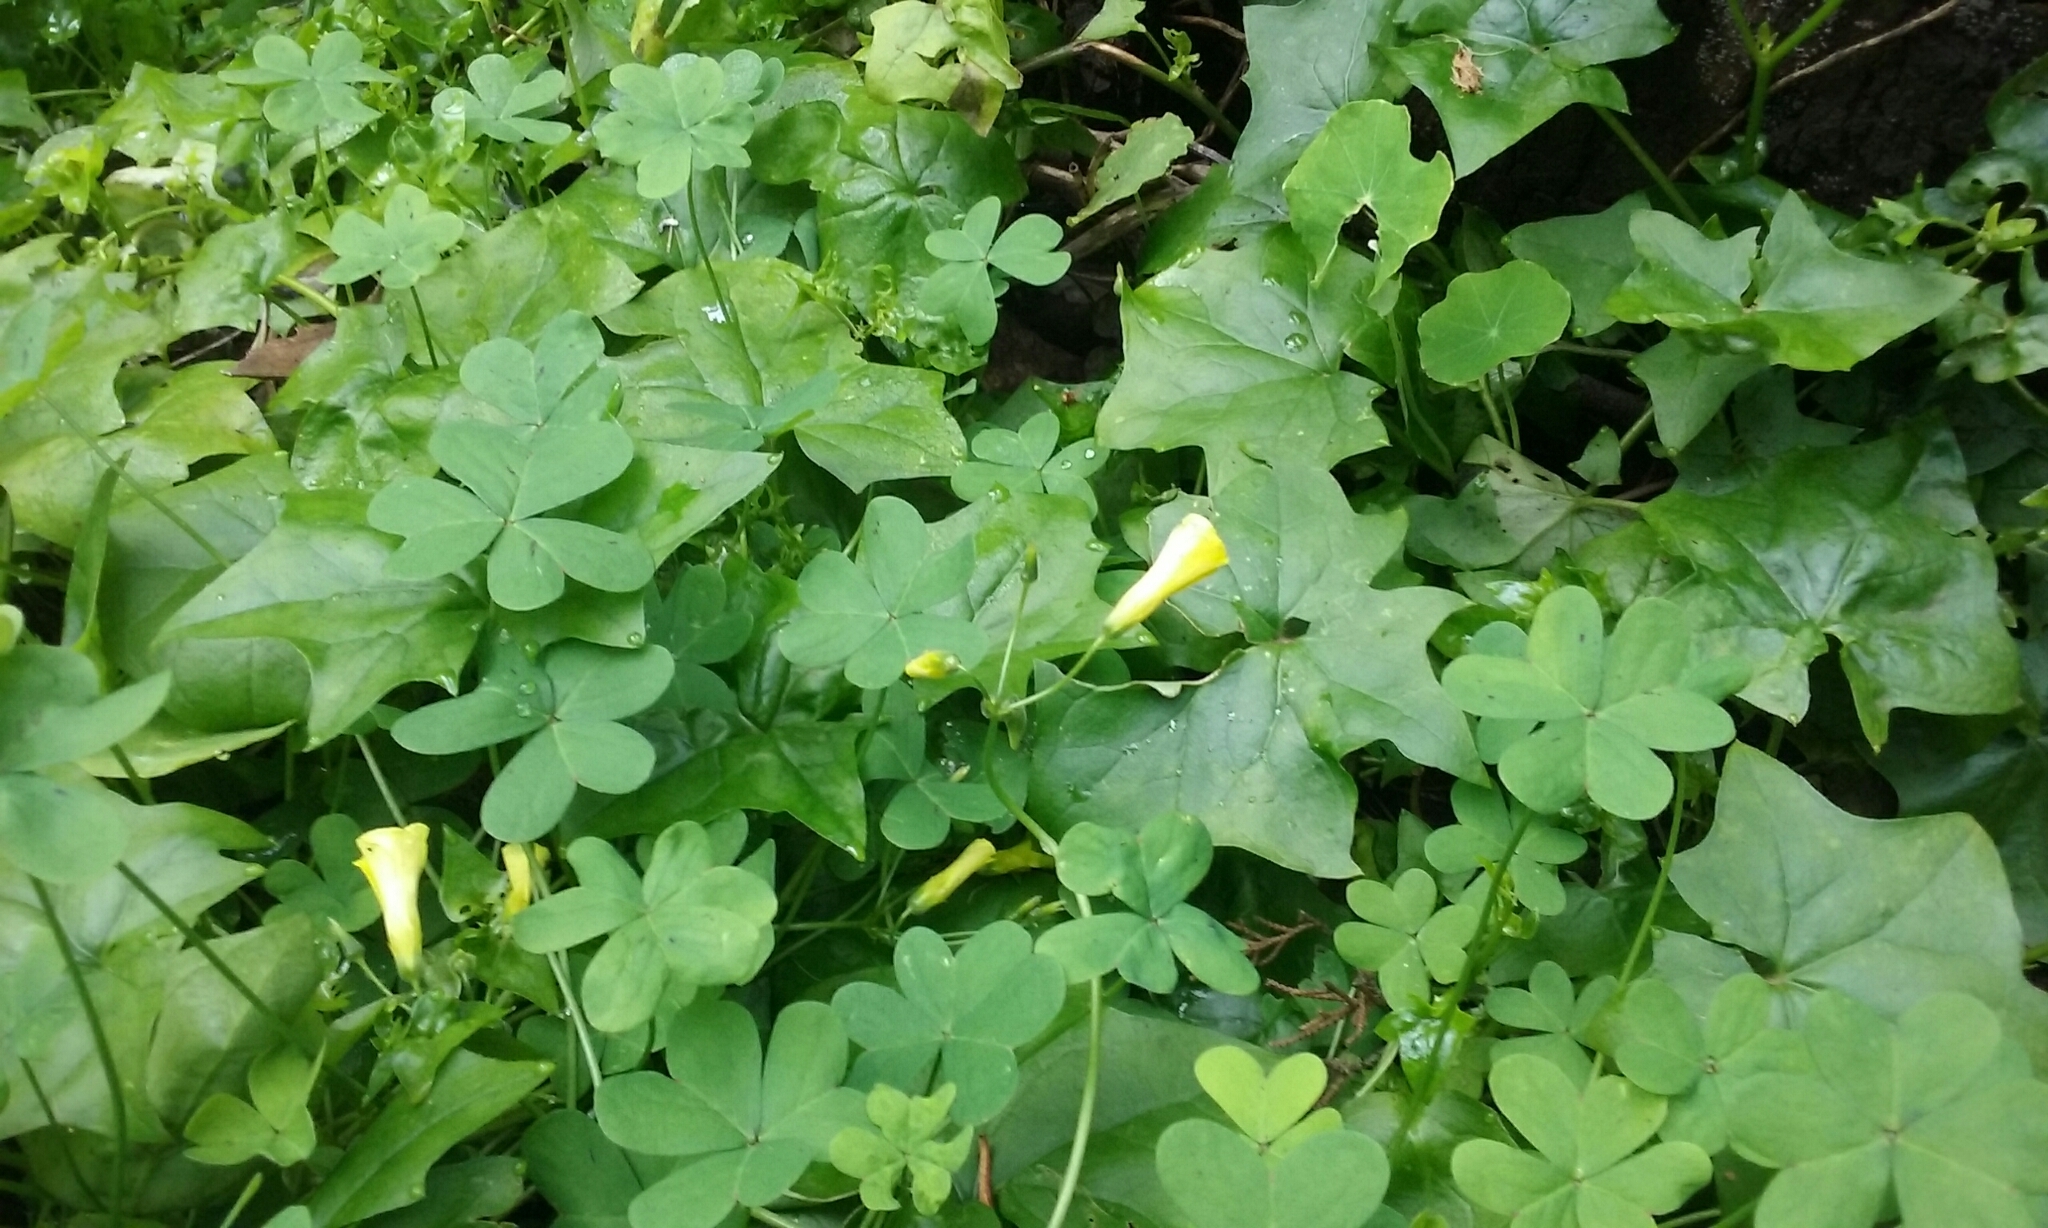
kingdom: Plantae
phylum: Tracheophyta
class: Magnoliopsida
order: Oxalidales
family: Oxalidaceae
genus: Oxalis
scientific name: Oxalis pes-caprae
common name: Bermuda-buttercup
